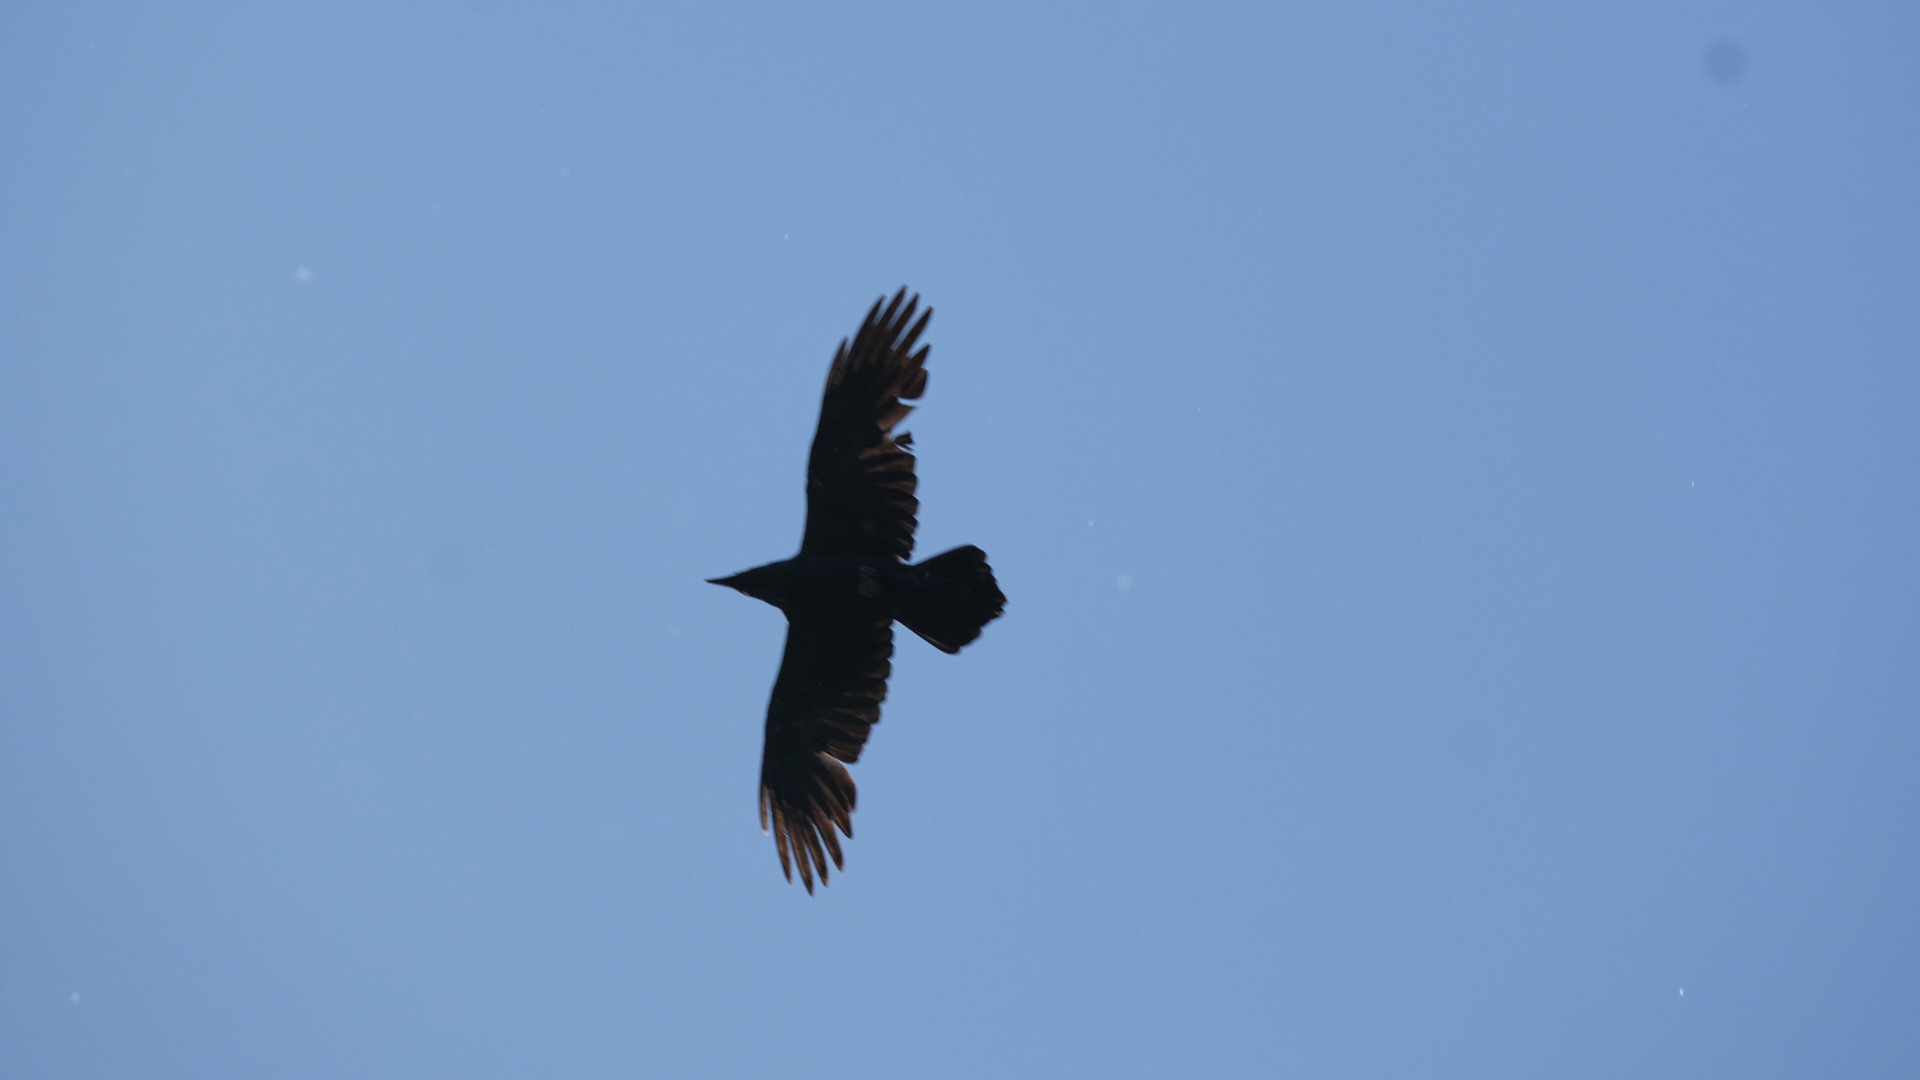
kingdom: Animalia
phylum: Chordata
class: Aves
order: Passeriformes
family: Corvidae
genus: Corvus
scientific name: Corvus corax
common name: Common raven
